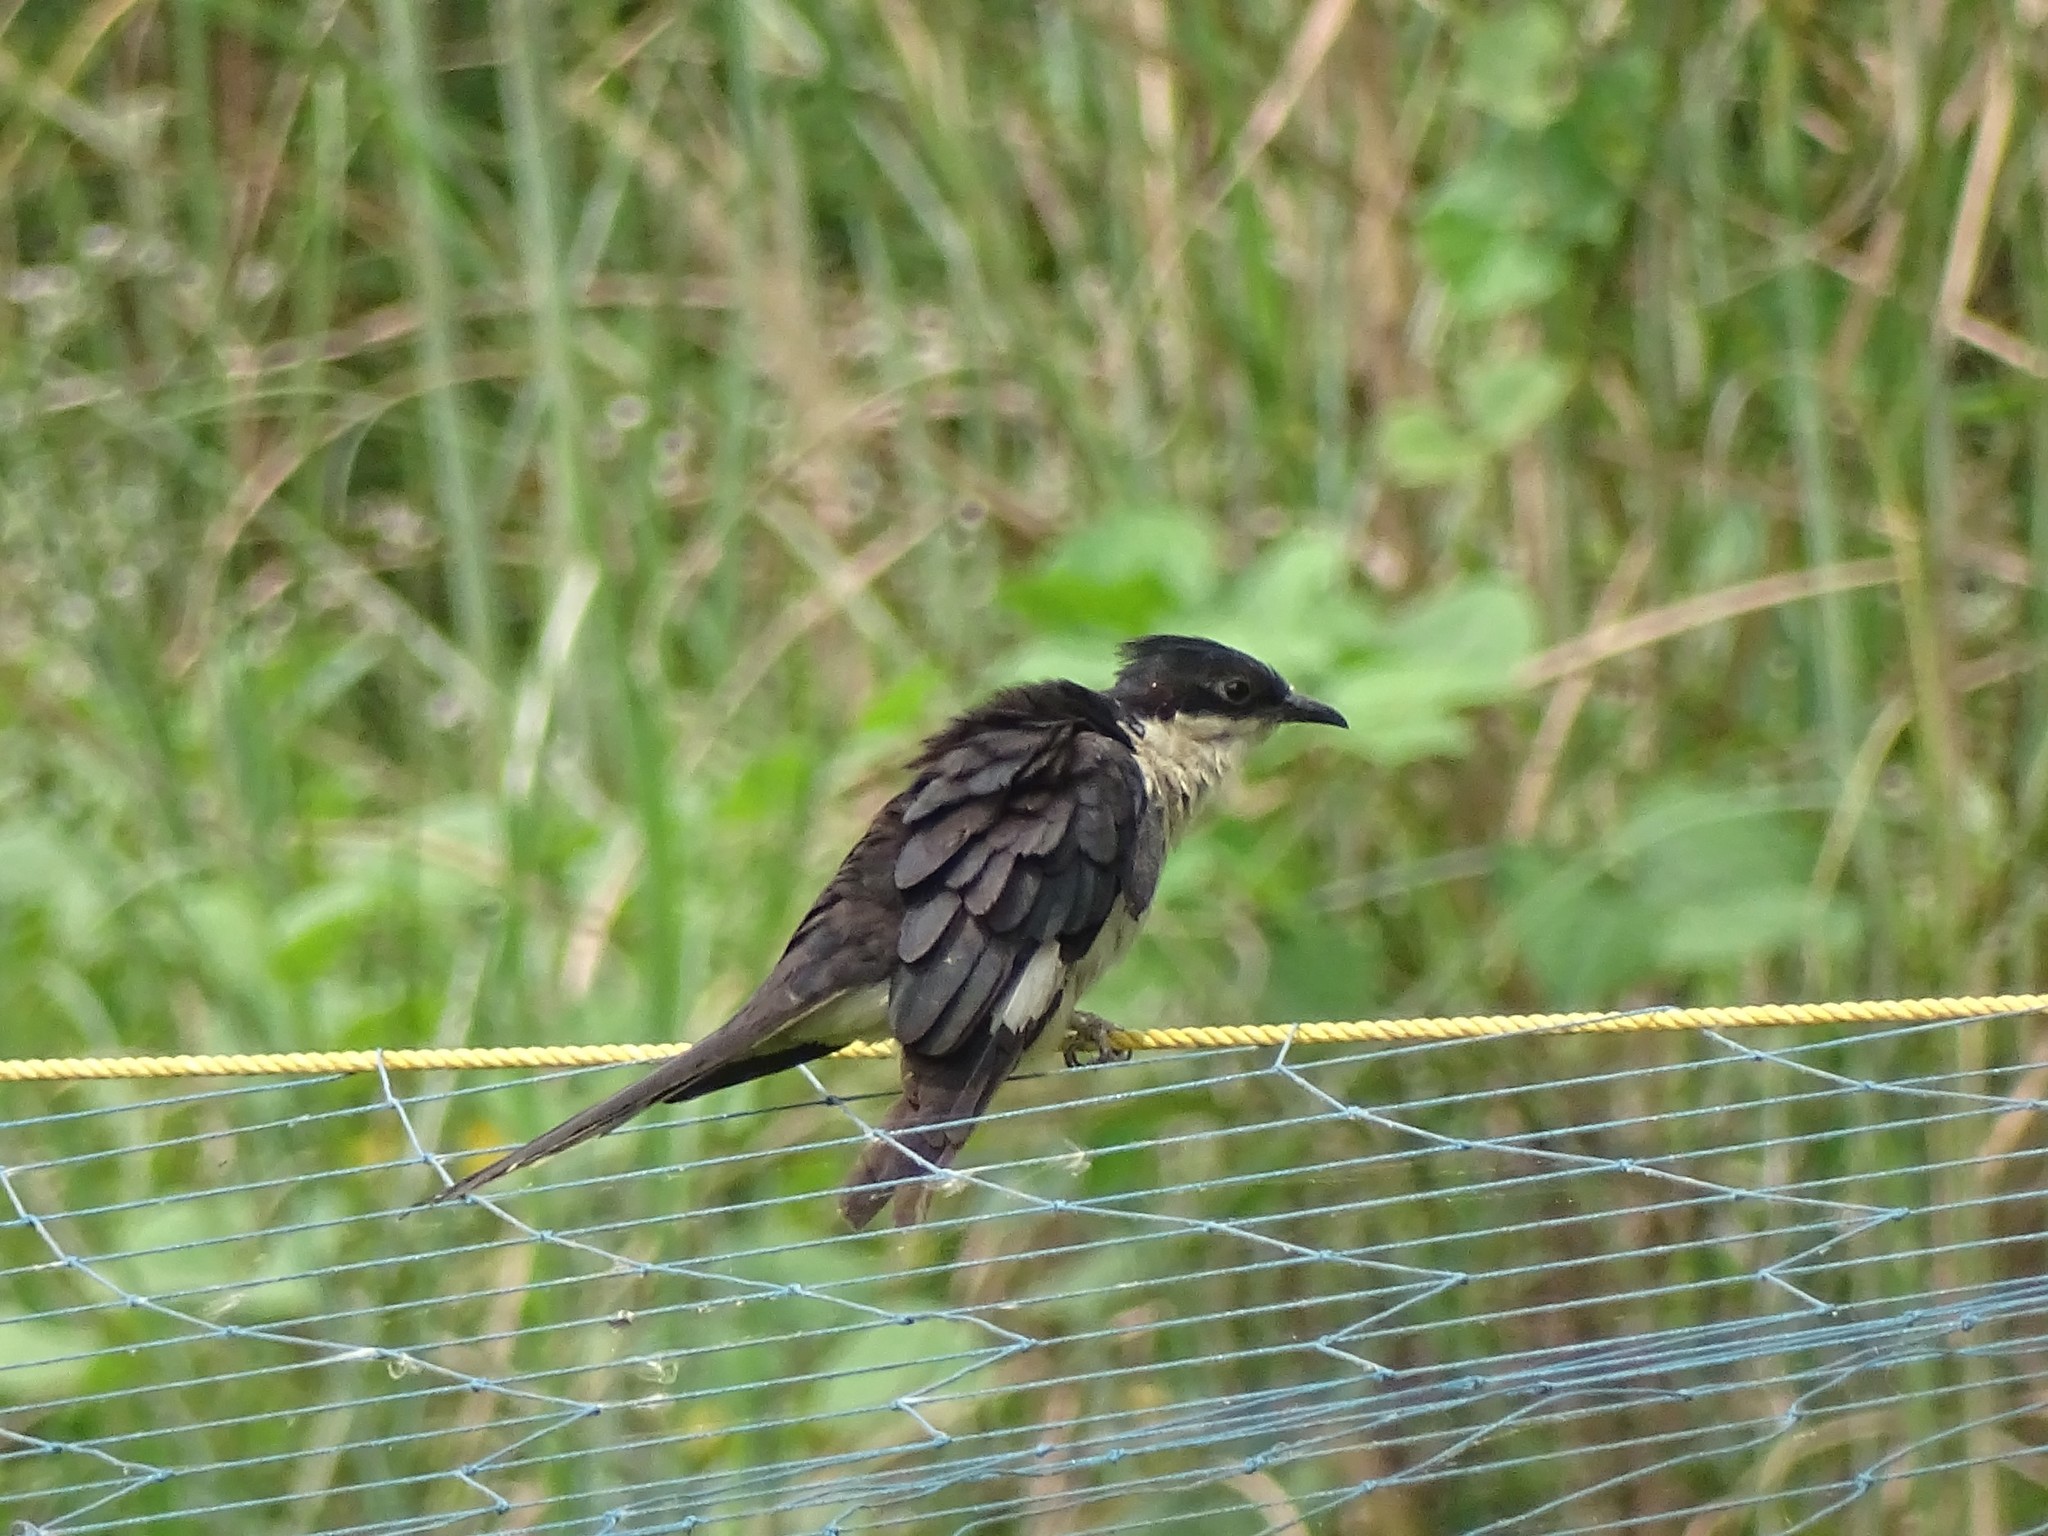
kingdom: Animalia
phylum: Chordata
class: Aves
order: Cuculiformes
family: Cuculidae
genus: Clamator
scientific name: Clamator jacobinus
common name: Jacobin cuckoo
